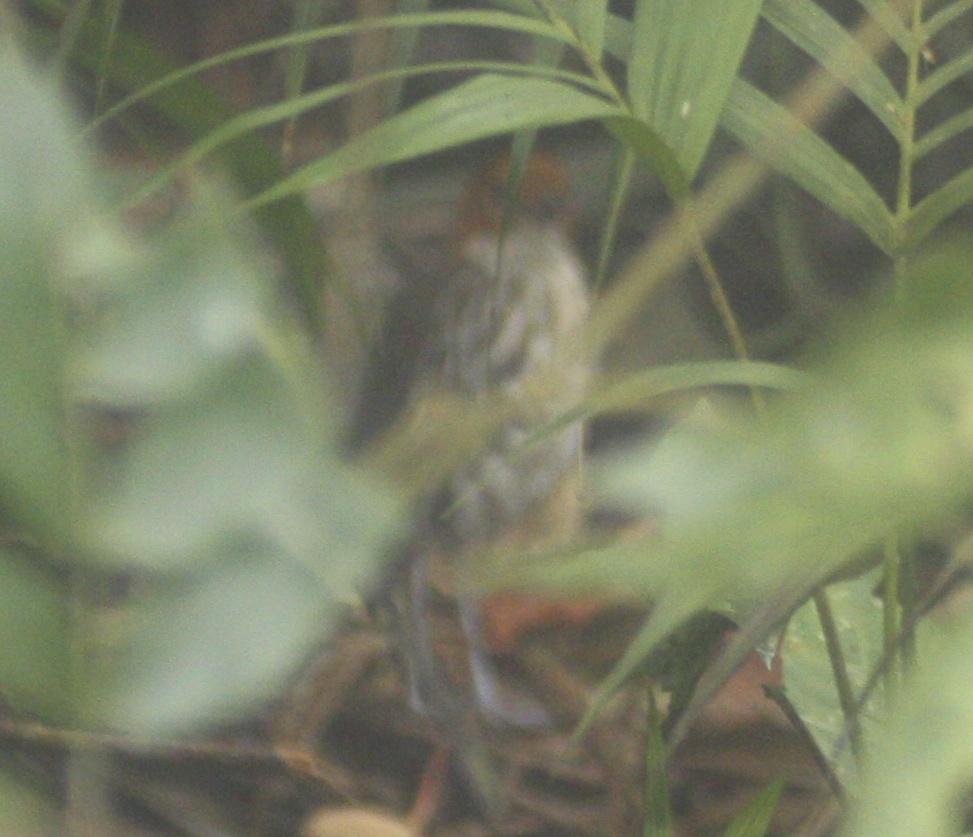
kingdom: Animalia
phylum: Chordata
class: Aves
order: Passeriformes
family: Grallariidae
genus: Grallaria
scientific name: Grallaria ruficapilla
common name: Chestnut-crowned antpitta
